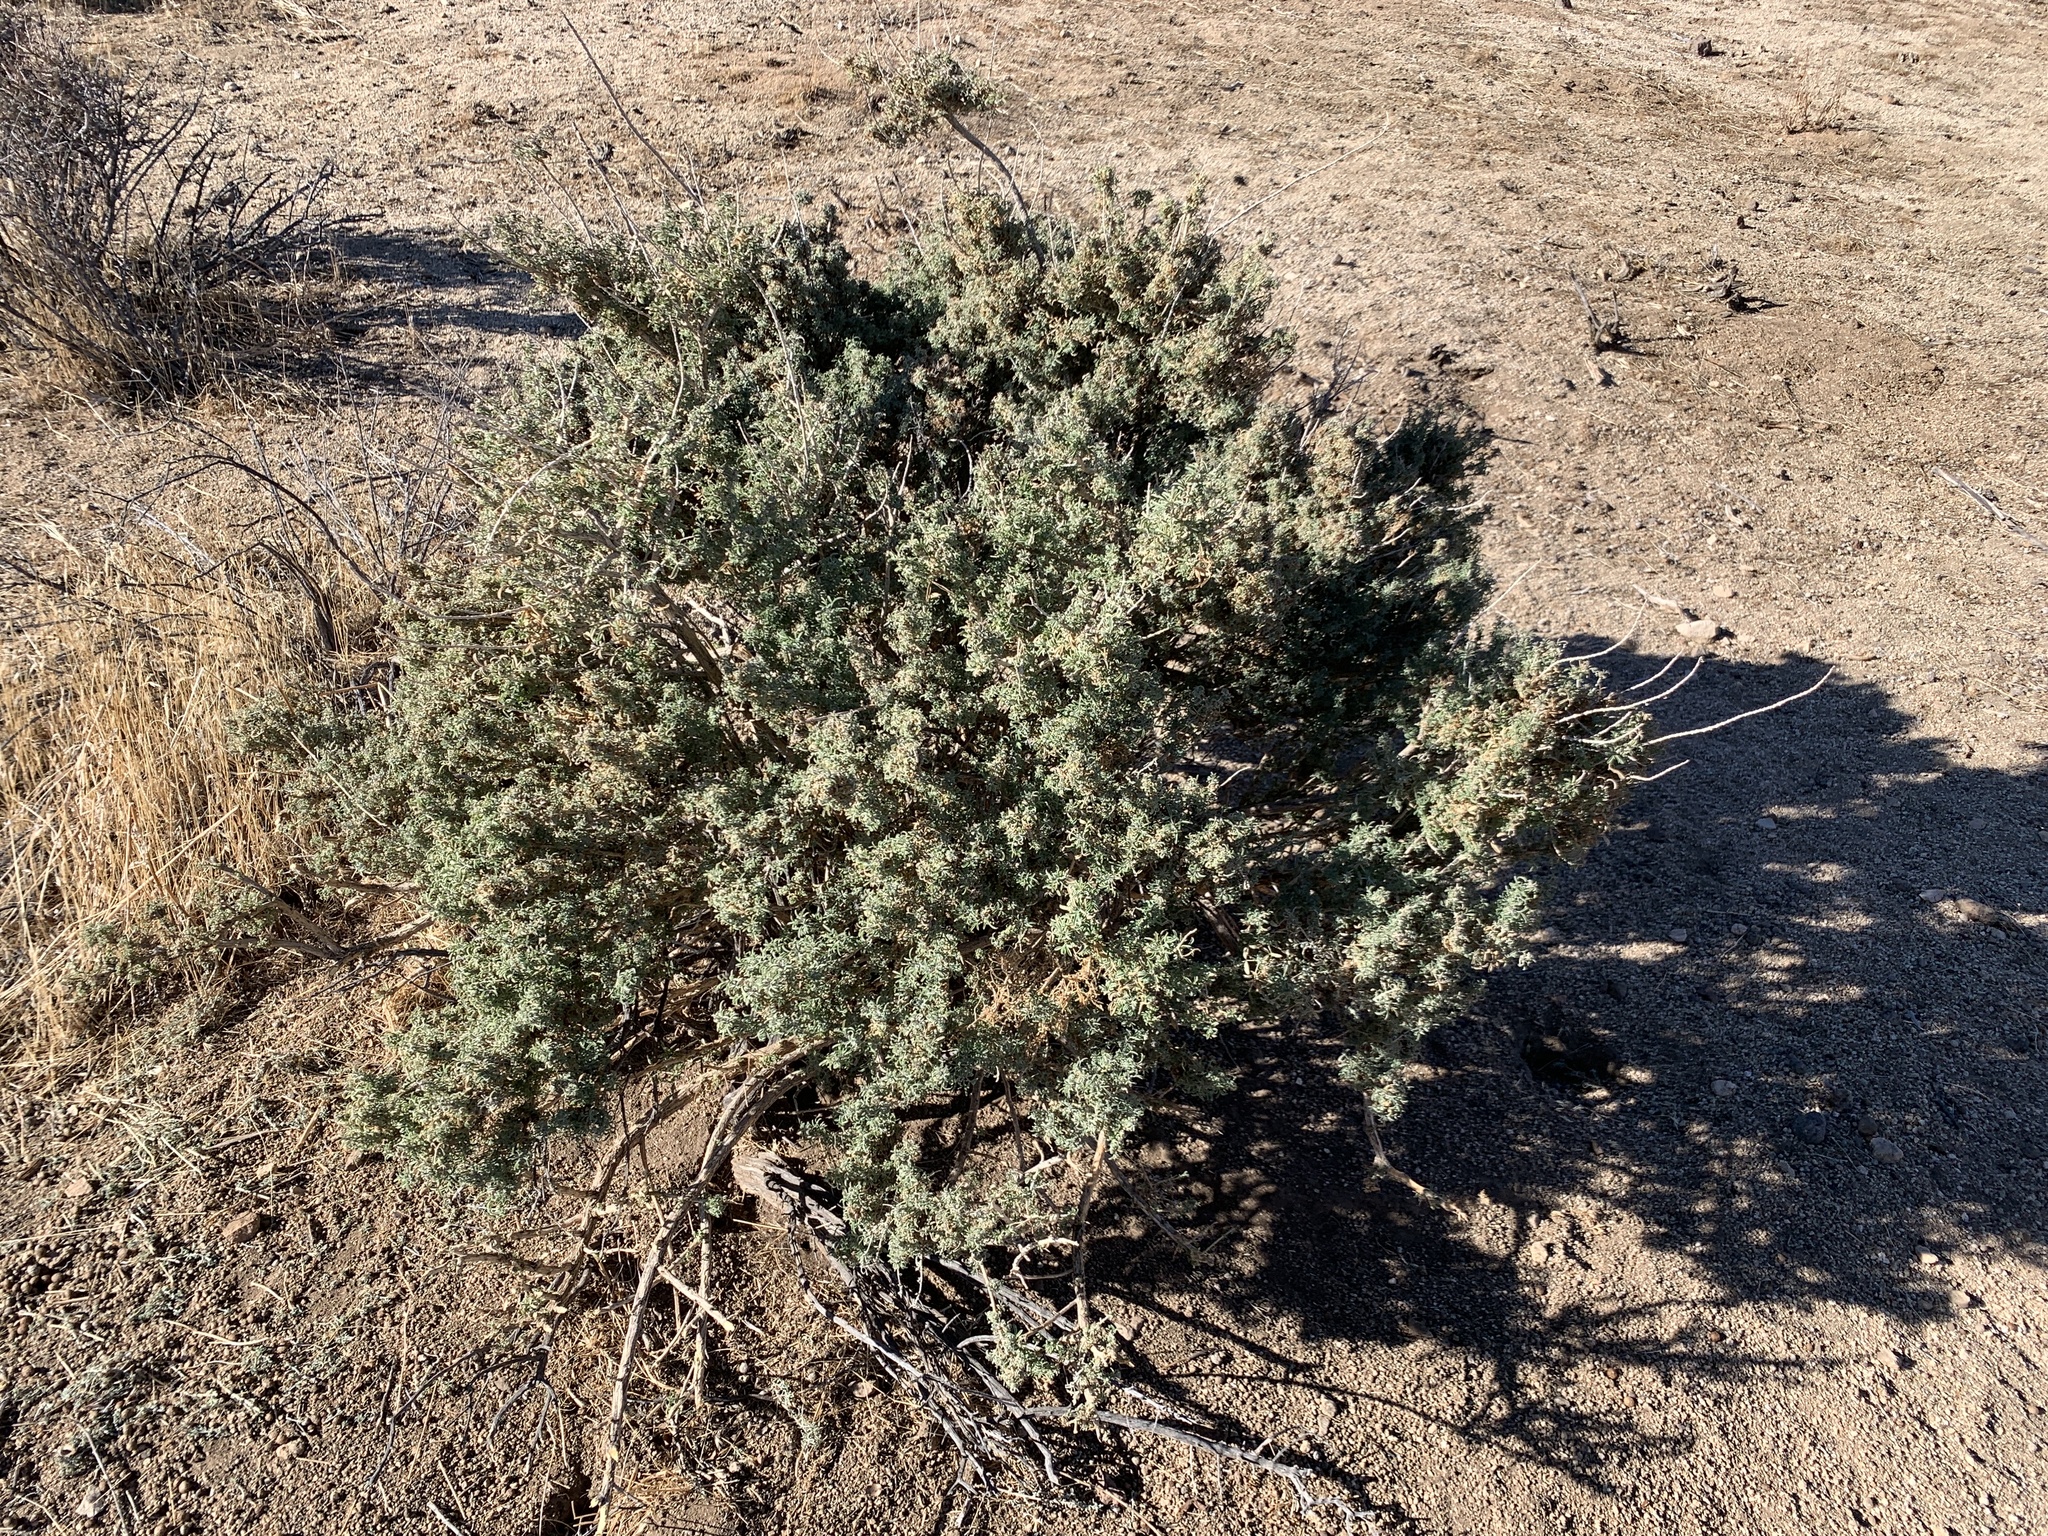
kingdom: Plantae
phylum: Tracheophyta
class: Magnoliopsida
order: Brassicales
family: Cleomaceae
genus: Cleomella
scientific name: Cleomella arborea
